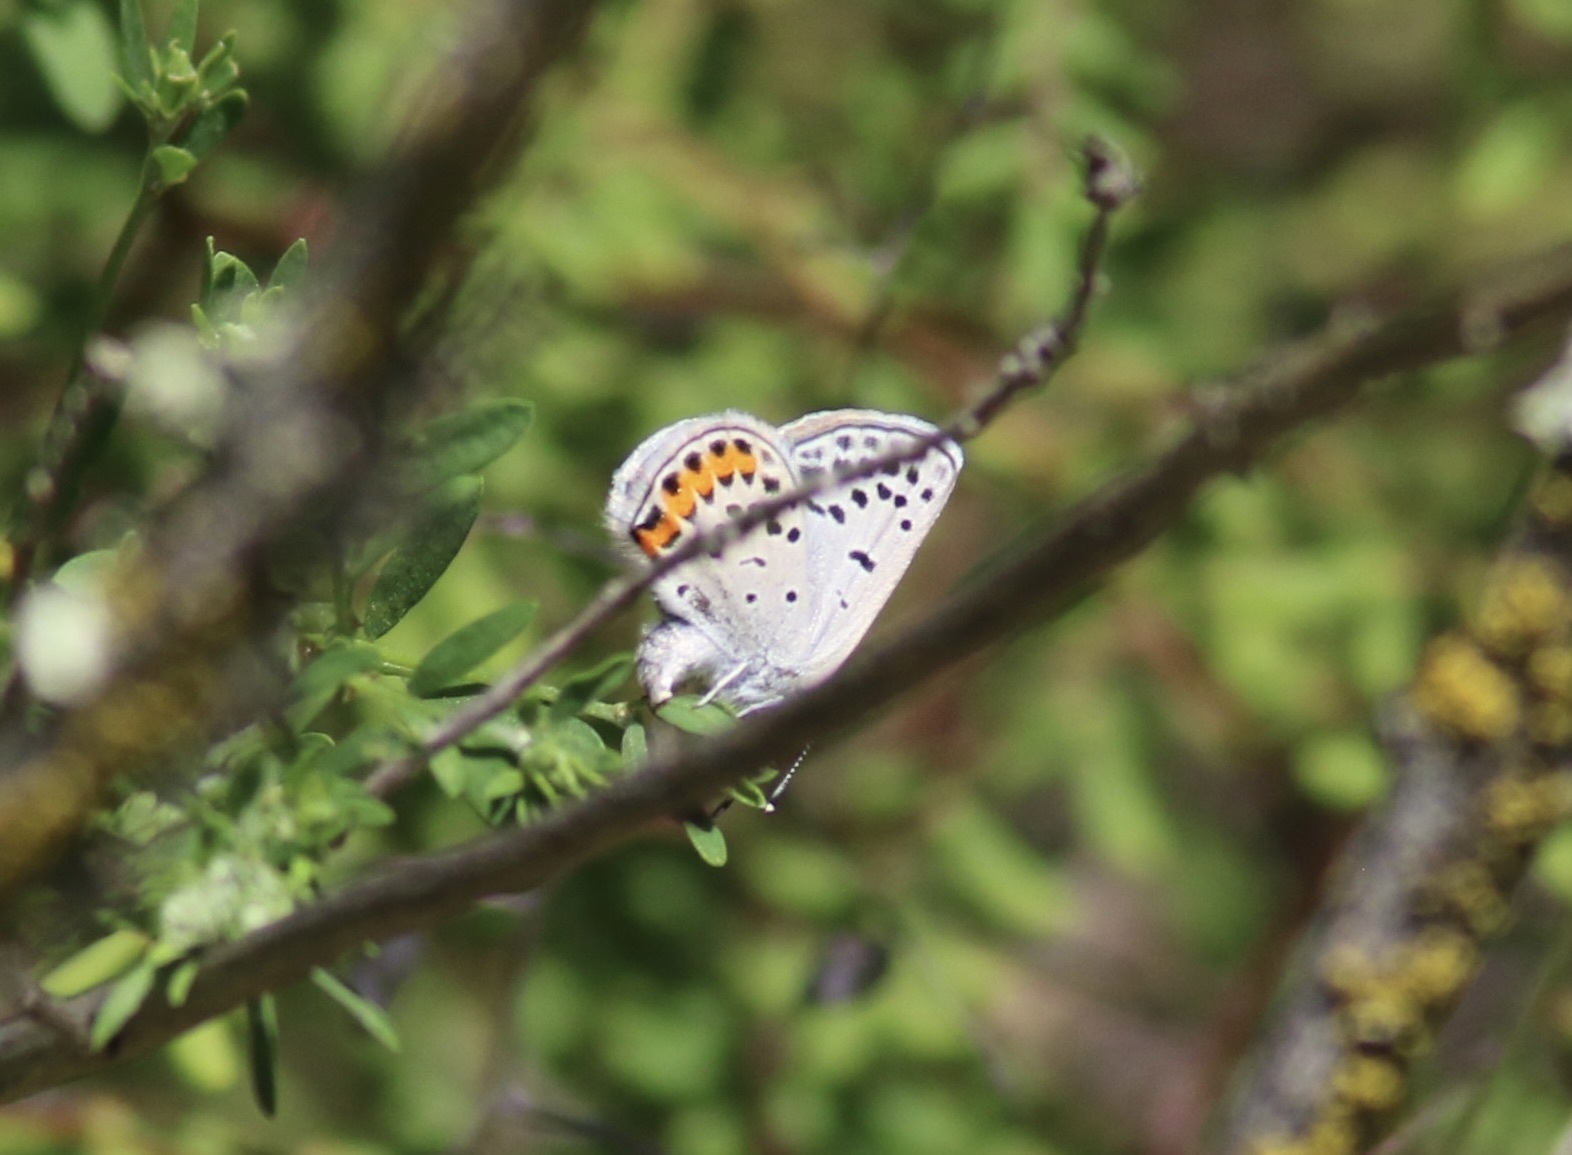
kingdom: Animalia
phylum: Arthropoda
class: Insecta
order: Lepidoptera
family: Lycaenidae
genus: Icaricia
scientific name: Icaricia acmon
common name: Acmon blue
